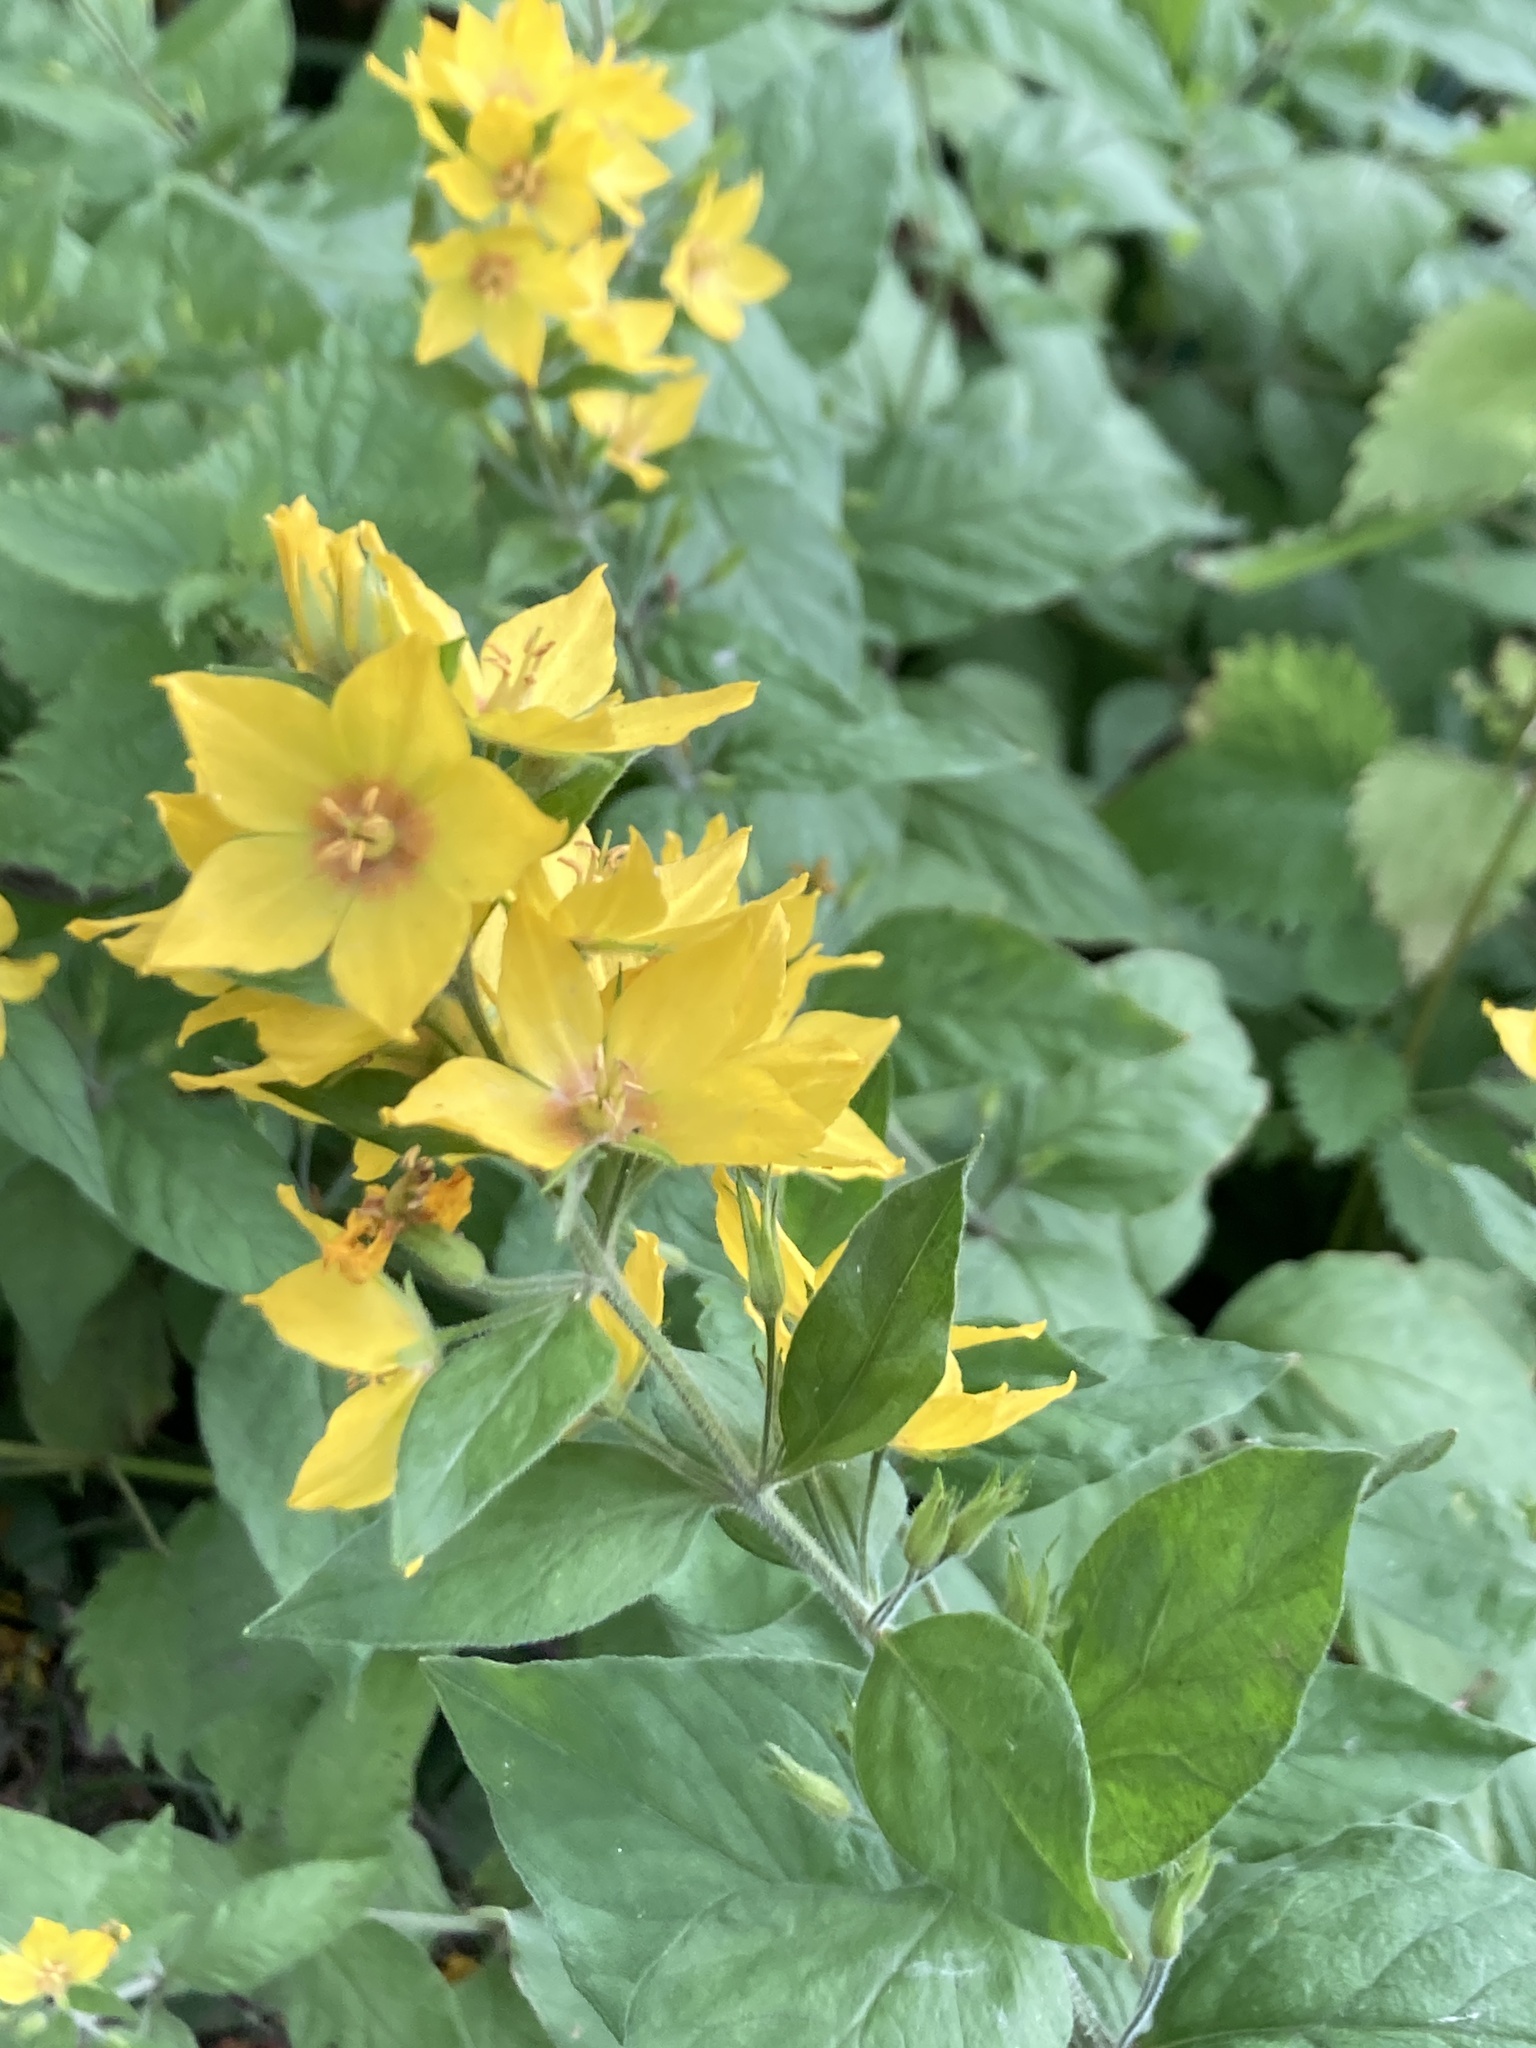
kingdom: Plantae
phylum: Tracheophyta
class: Magnoliopsida
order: Ericales
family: Primulaceae
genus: Lysimachia
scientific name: Lysimachia punctata
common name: Dotted loosestrife
